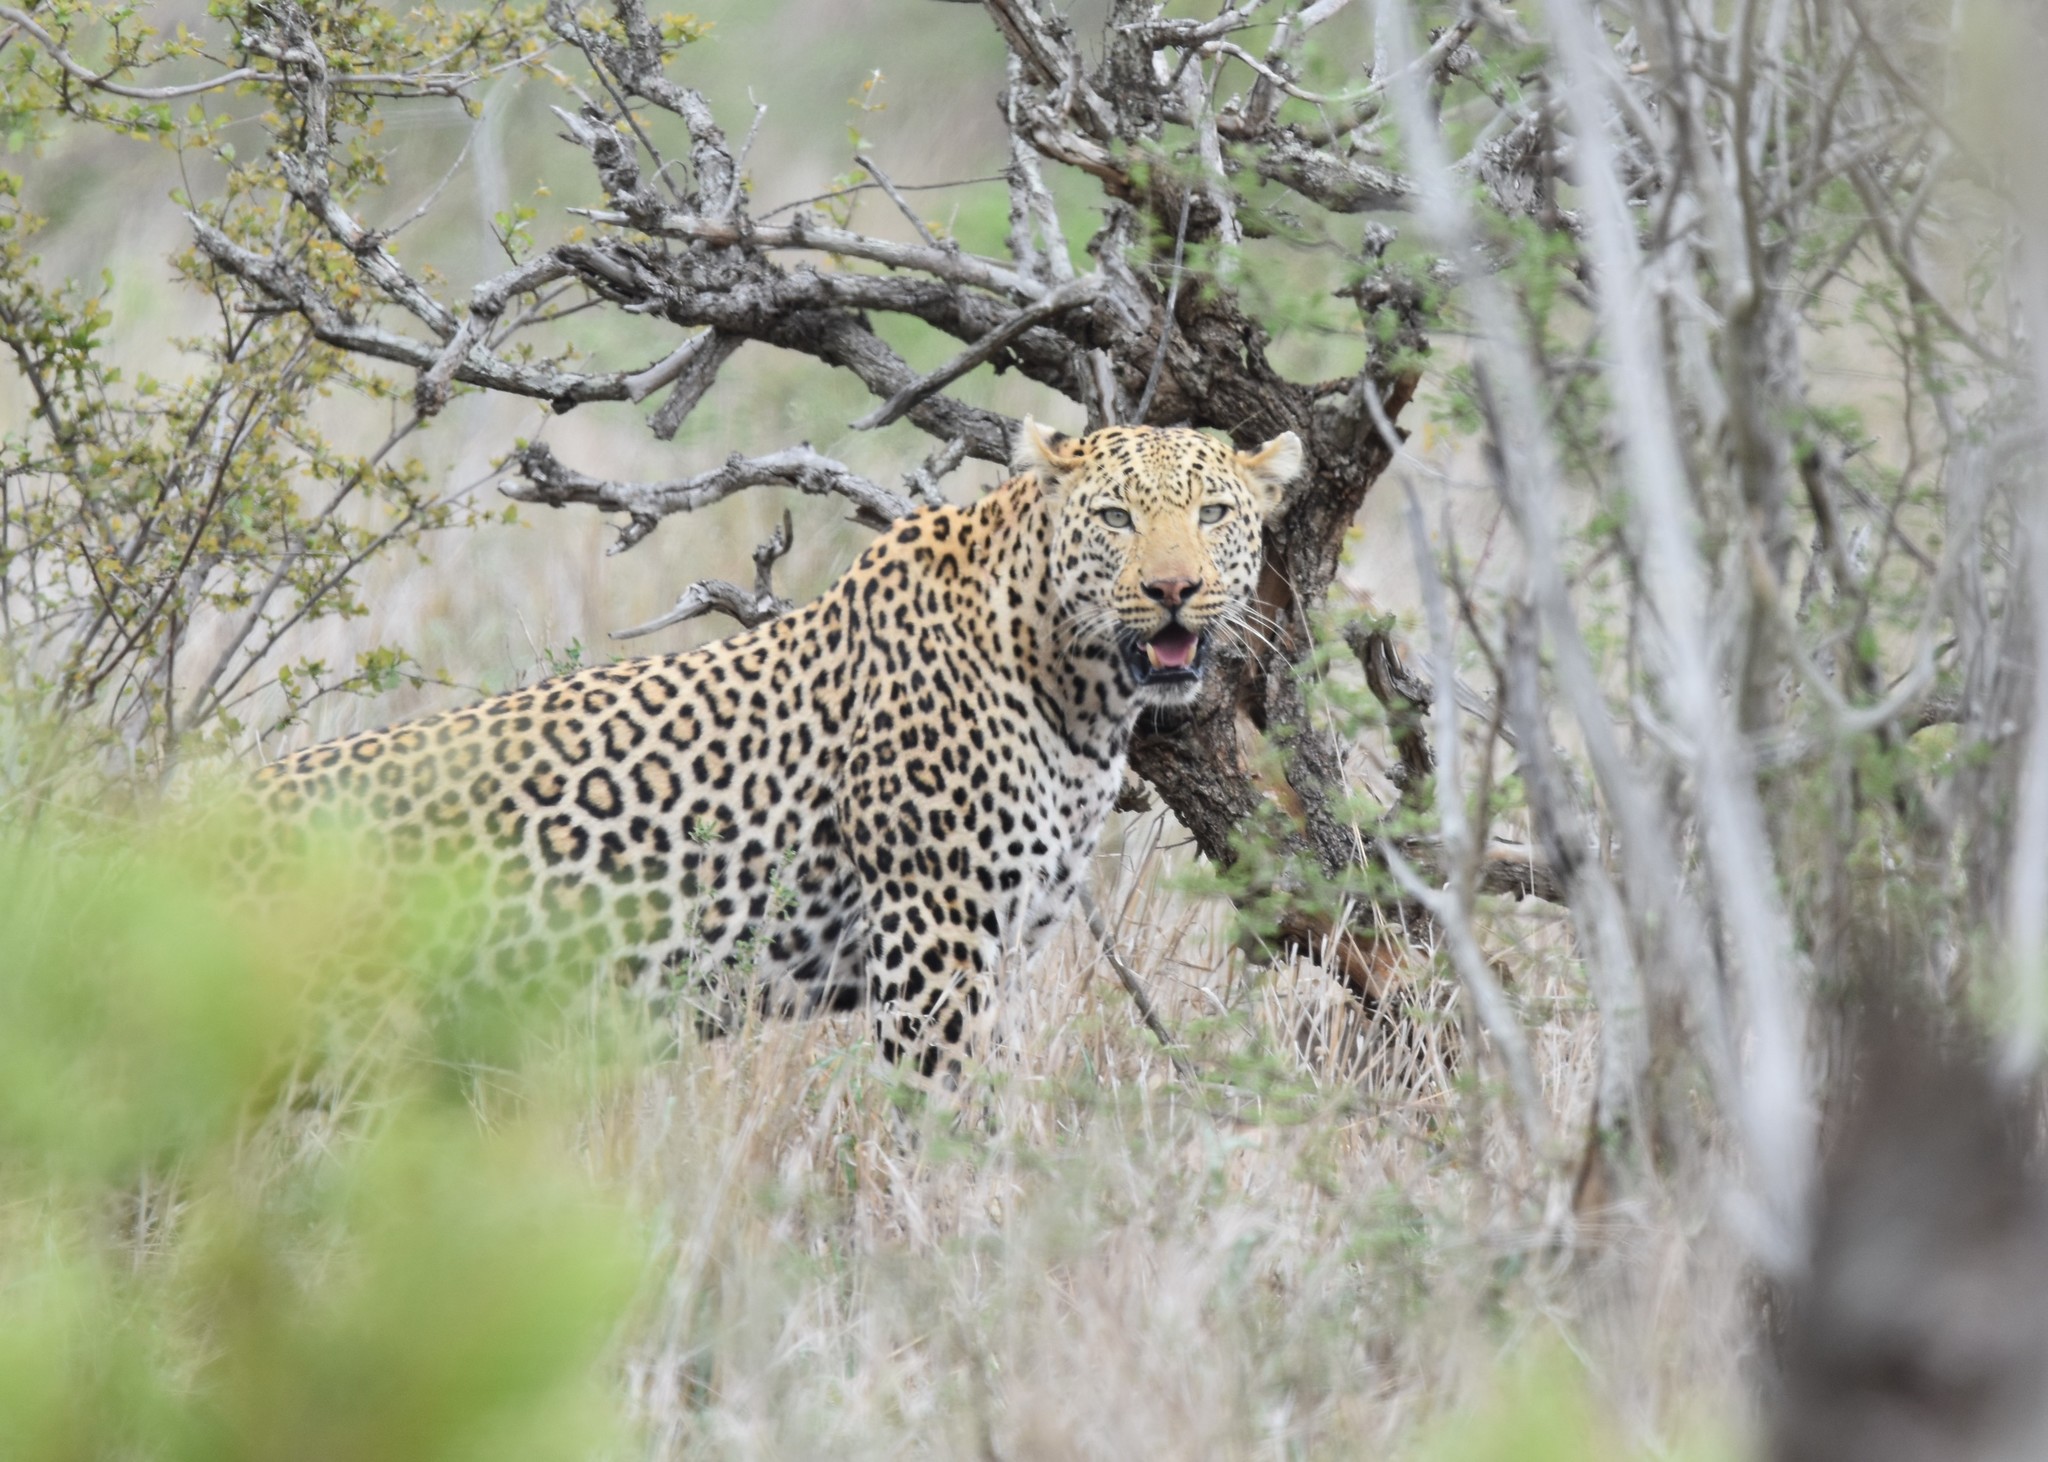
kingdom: Animalia
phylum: Chordata
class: Mammalia
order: Carnivora
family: Felidae
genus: Panthera
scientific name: Panthera pardus
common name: Leopard
